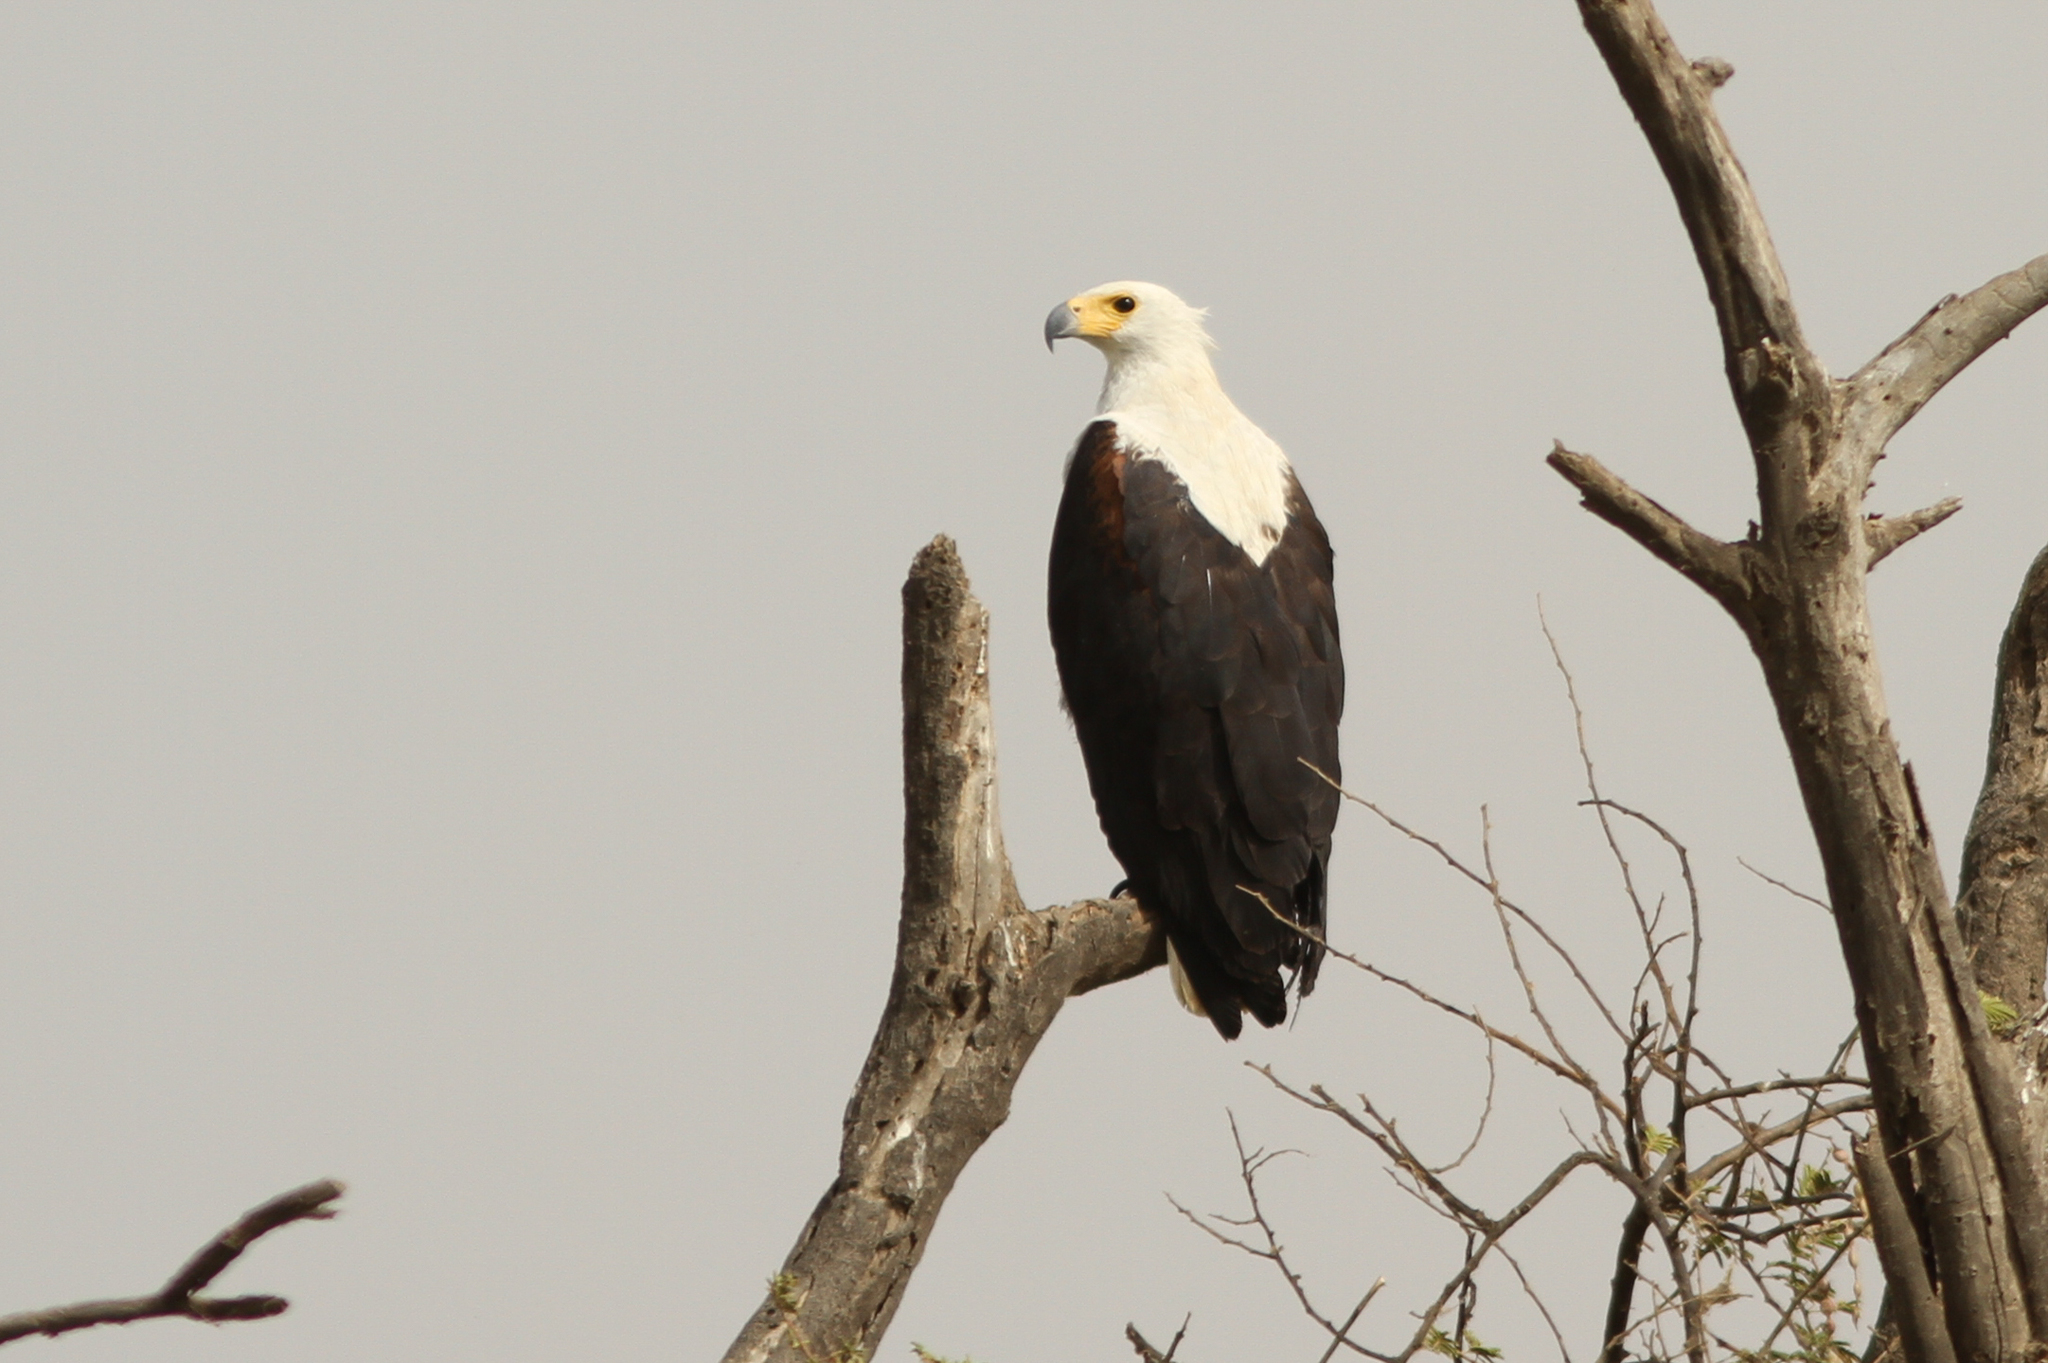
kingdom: Animalia
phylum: Chordata
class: Aves
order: Accipitriformes
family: Accipitridae
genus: Haliaeetus
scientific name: Haliaeetus vocifer
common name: African fish eagle
